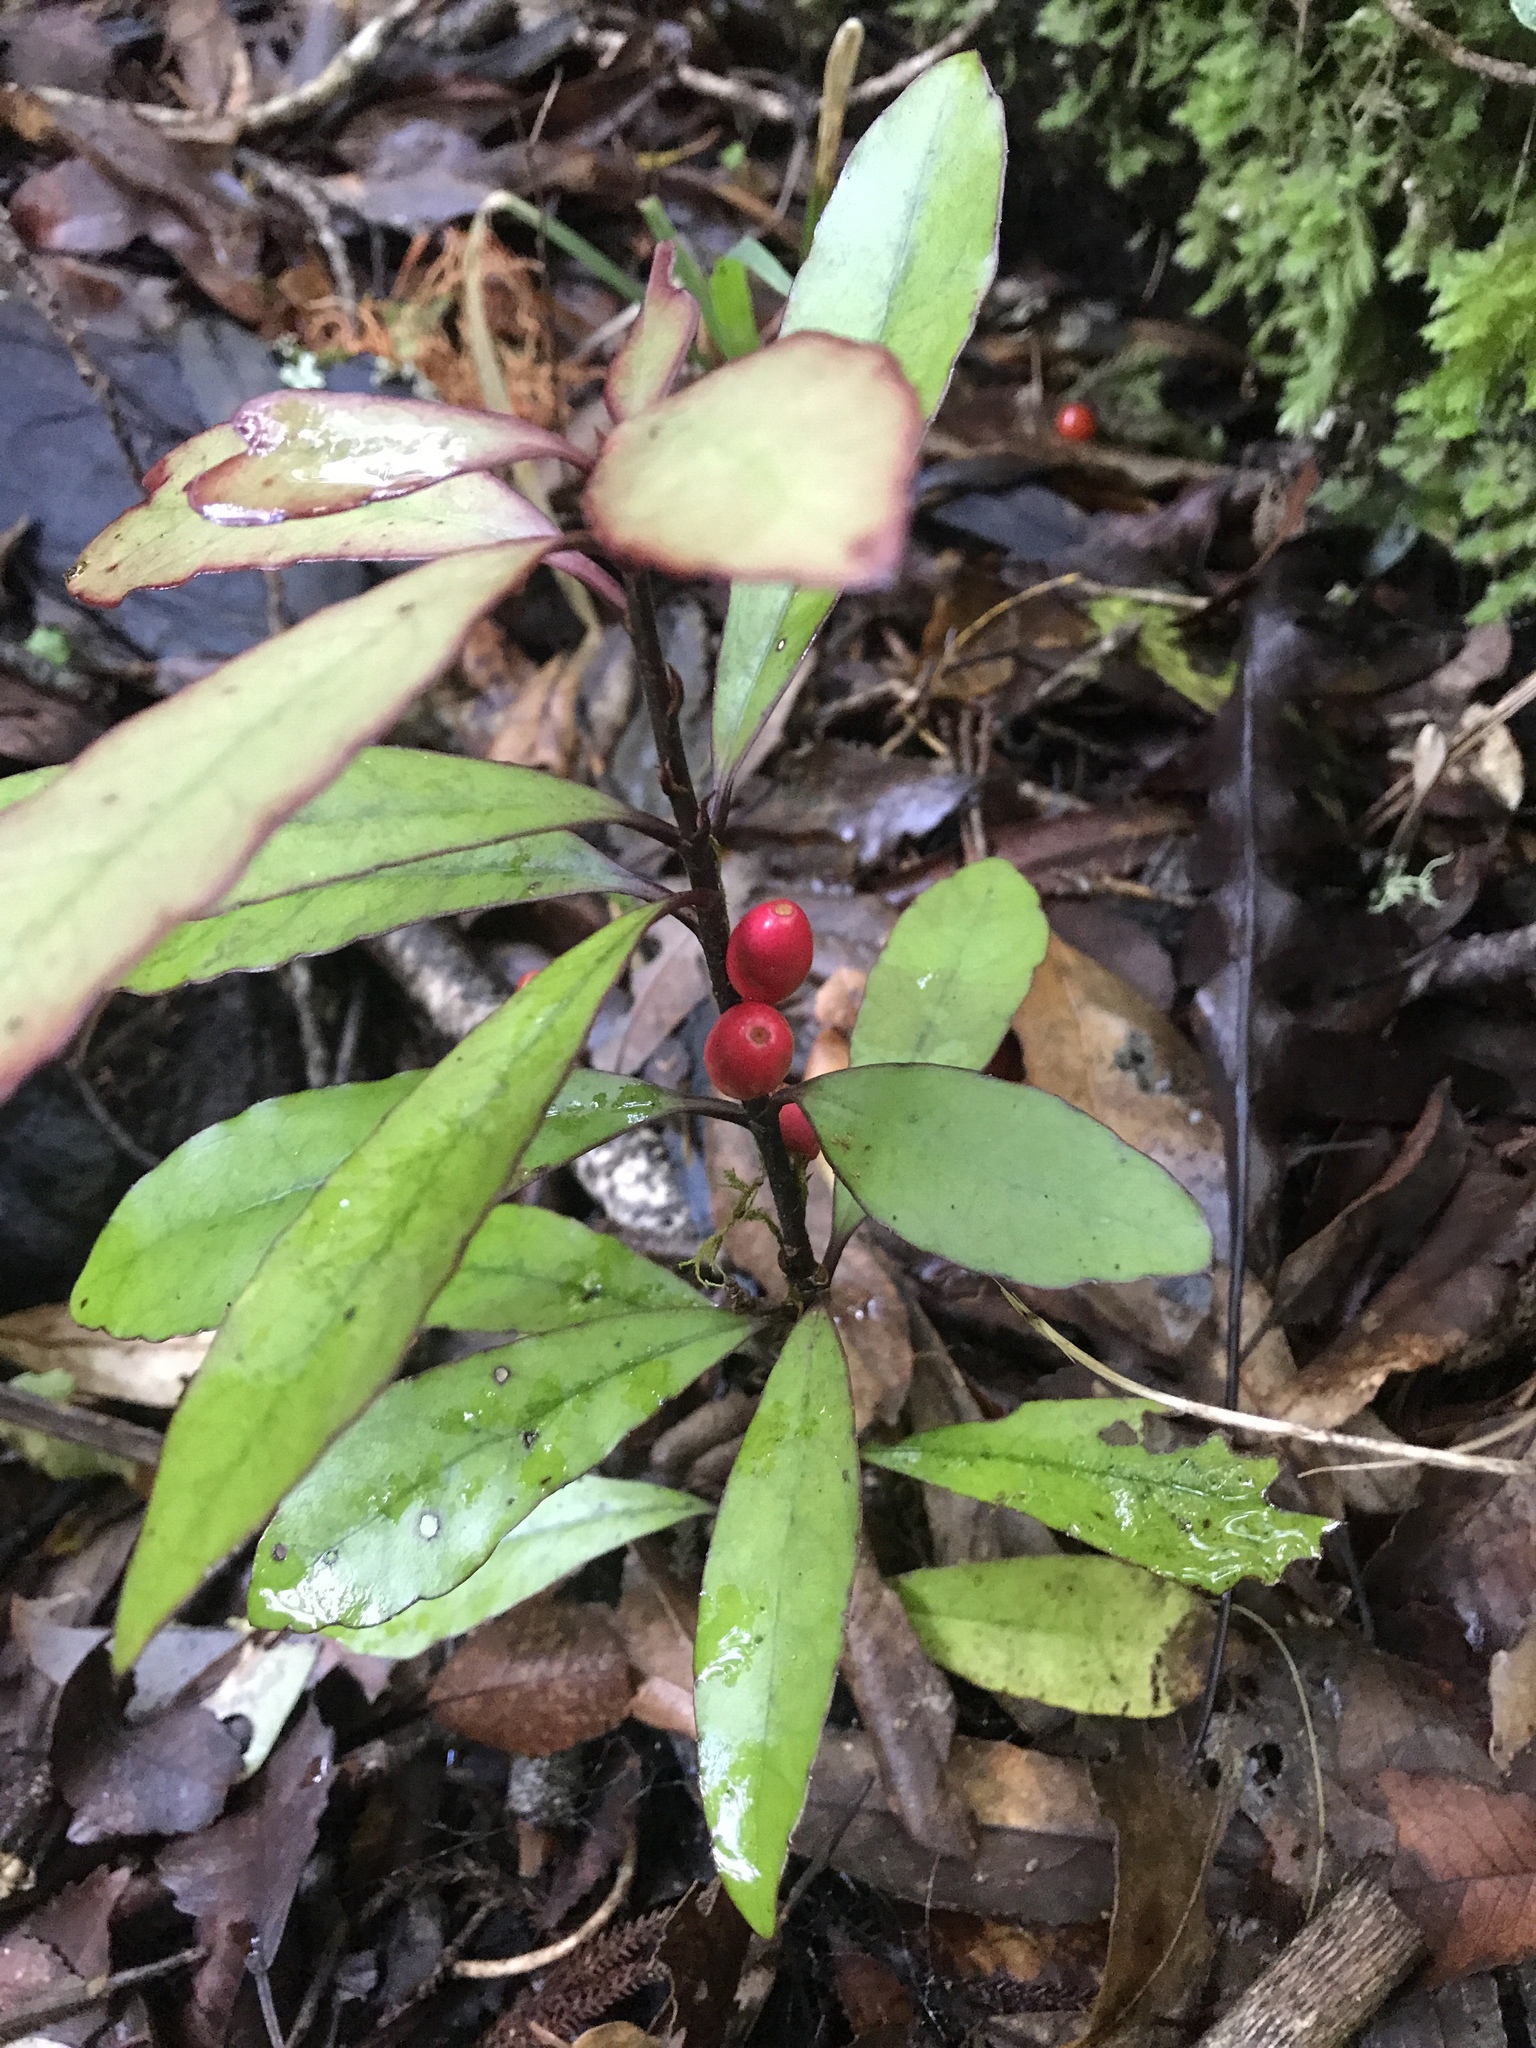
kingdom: Plantae
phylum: Tracheophyta
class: Magnoliopsida
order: Asterales
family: Alseuosmiaceae
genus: Alseuosmia
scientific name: Alseuosmia pusilla
